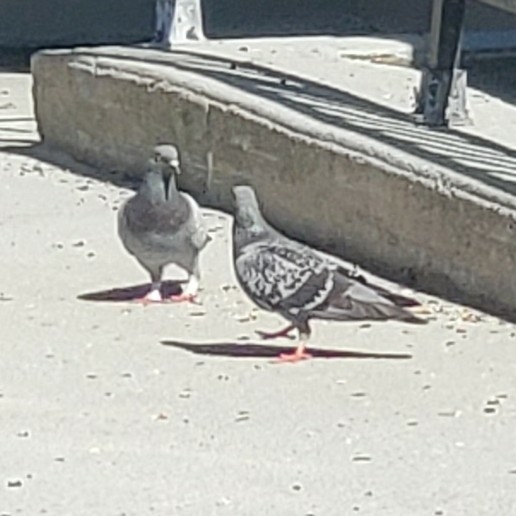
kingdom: Animalia
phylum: Chordata
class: Aves
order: Columbiformes
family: Columbidae
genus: Columba
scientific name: Columba livia
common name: Rock pigeon
